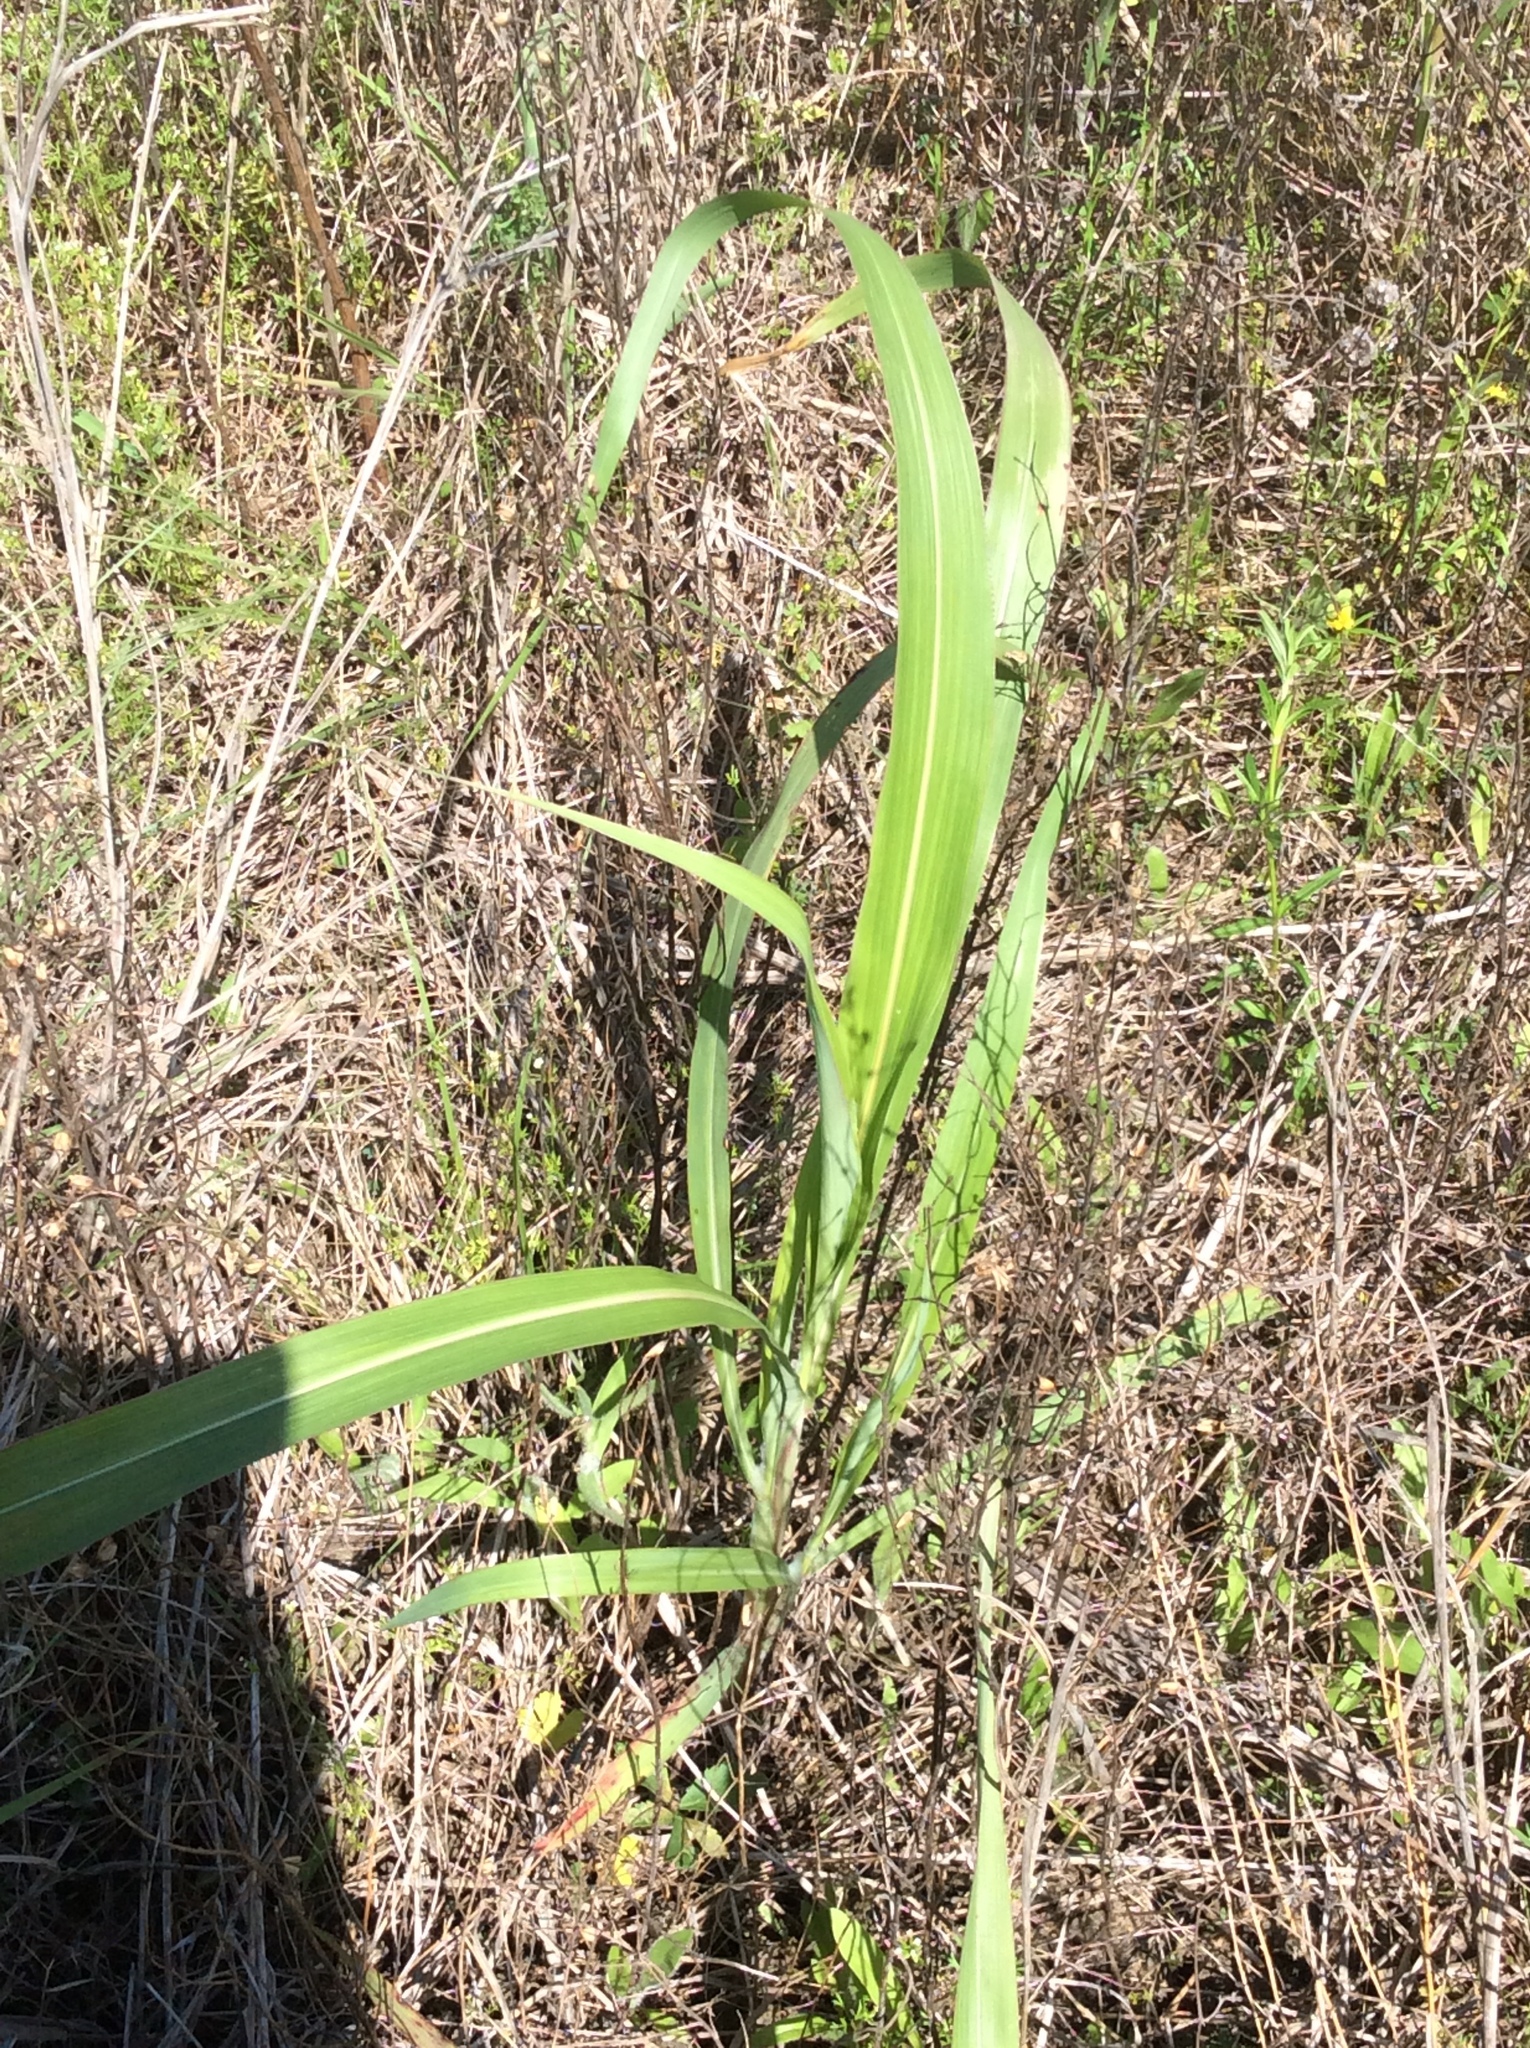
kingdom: Plantae
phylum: Tracheophyta
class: Liliopsida
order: Poales
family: Poaceae
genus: Sorghum
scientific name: Sorghum halepense
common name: Johnson-grass
